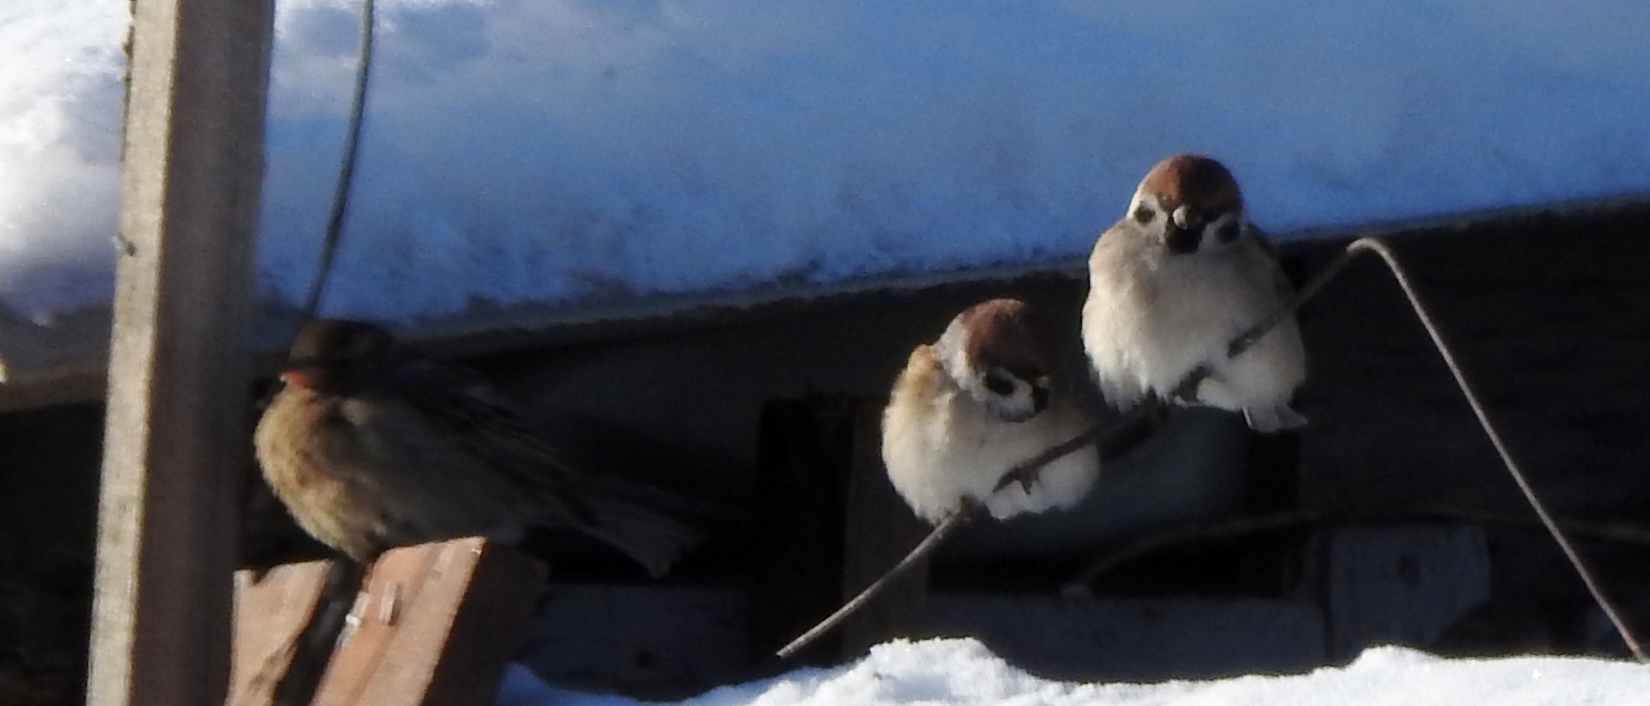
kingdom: Animalia
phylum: Chordata
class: Aves
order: Passeriformes
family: Passeridae
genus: Passer
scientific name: Passer montanus
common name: Eurasian tree sparrow
